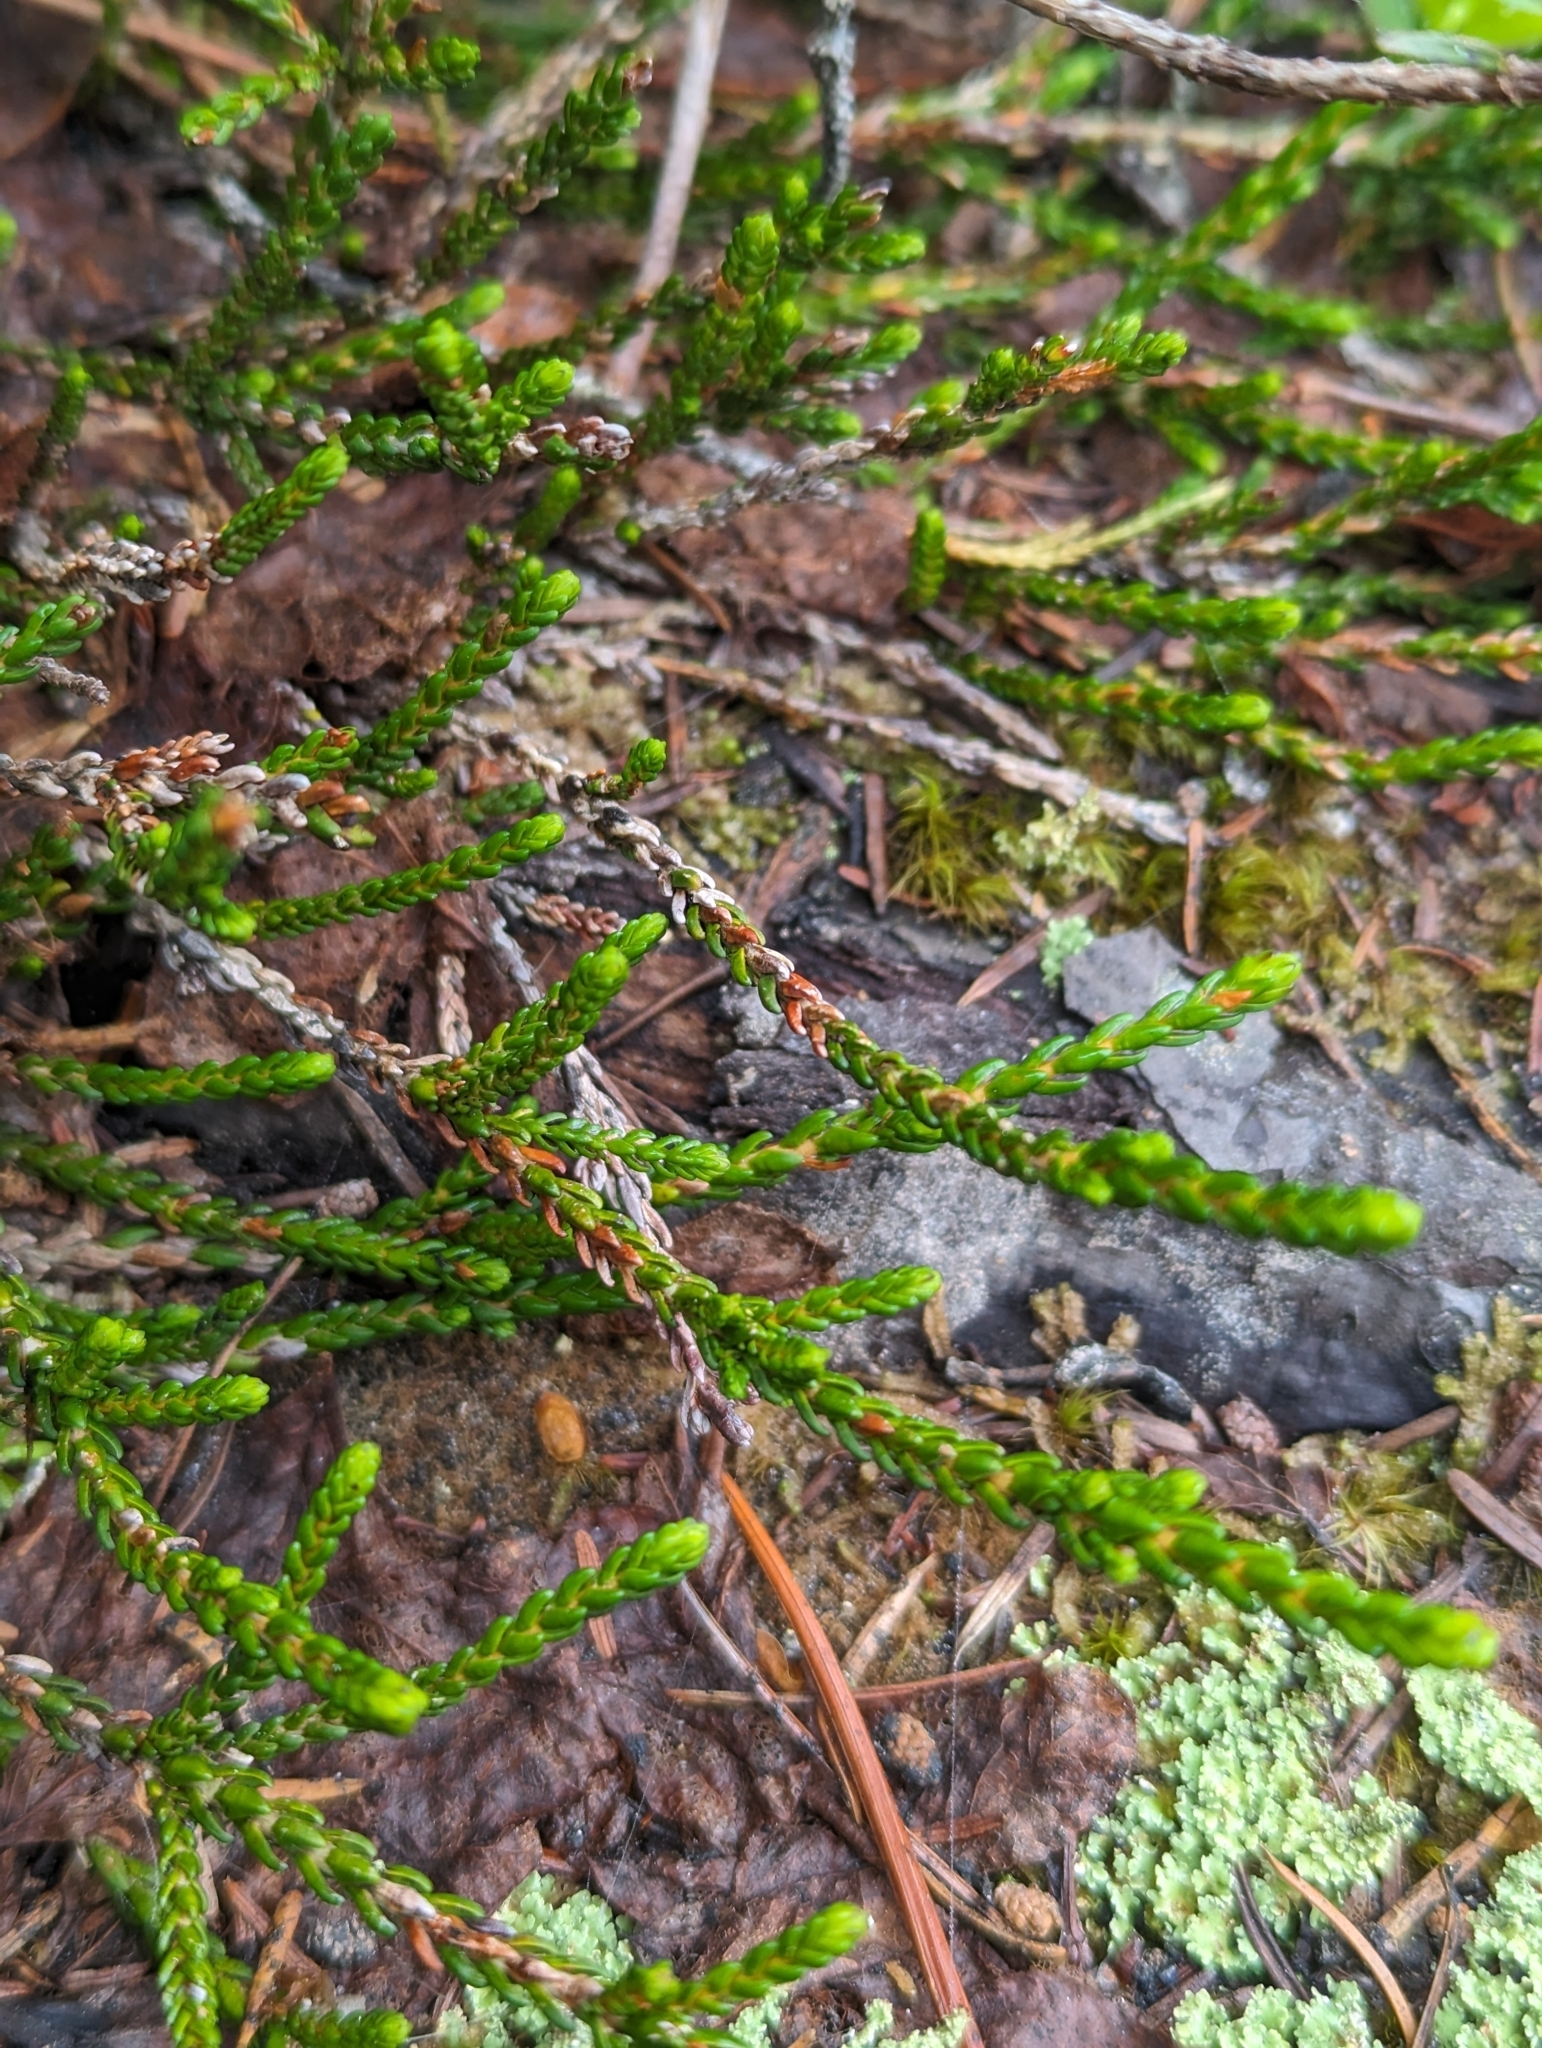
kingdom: Plantae
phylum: Tracheophyta
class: Magnoliopsida
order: Ericales
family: Ericaceae
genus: Cassiope
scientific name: Cassiope mertensiana
